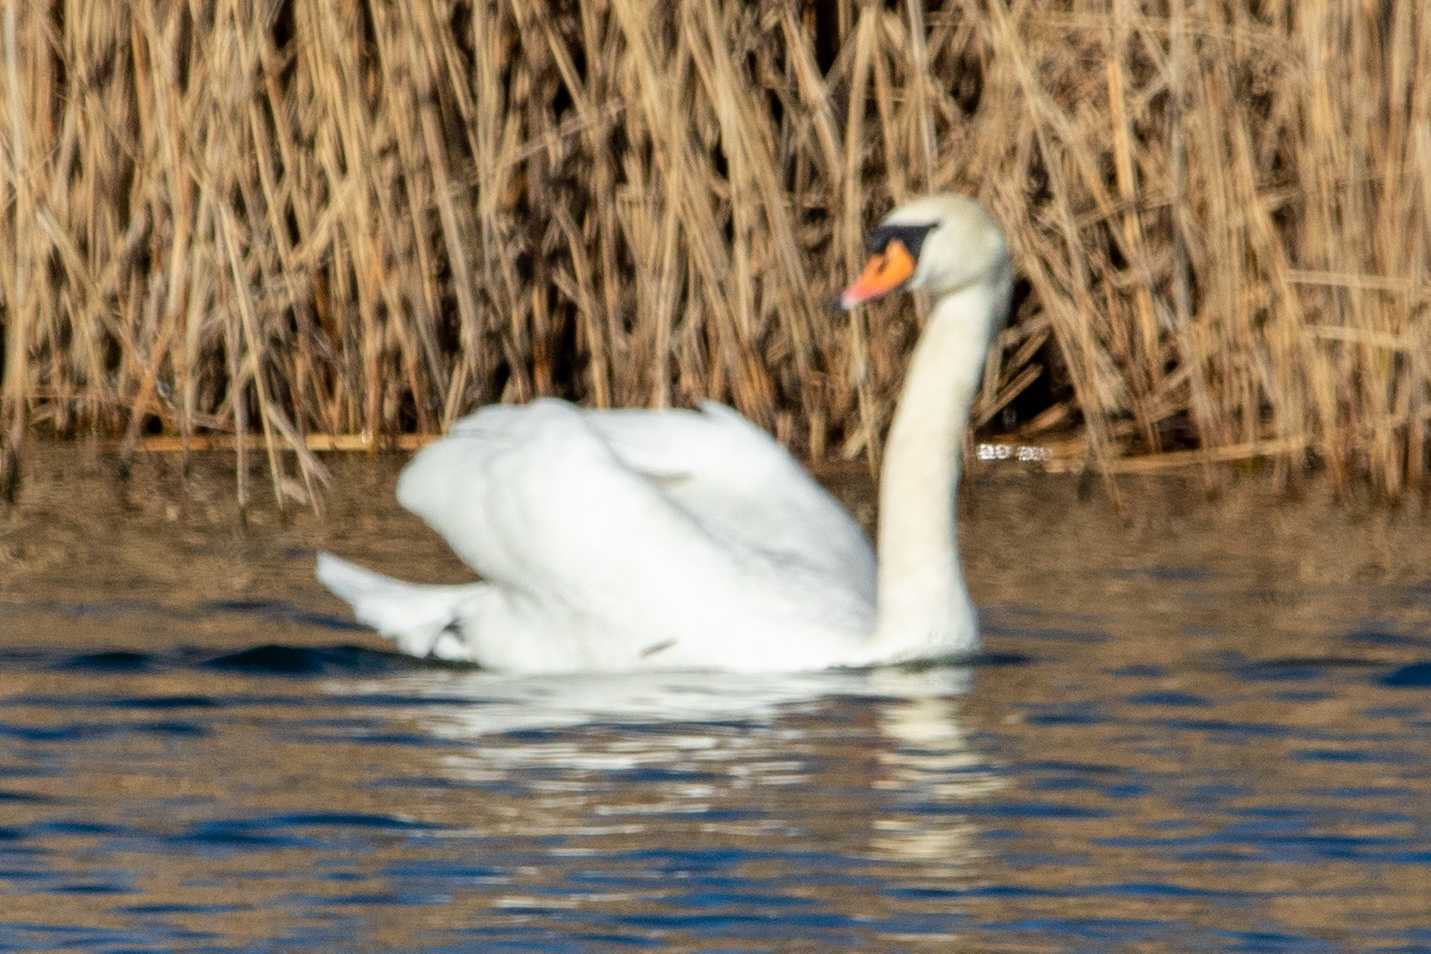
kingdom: Animalia
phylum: Chordata
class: Aves
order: Anseriformes
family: Anatidae
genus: Cygnus
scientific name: Cygnus olor
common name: Mute swan
